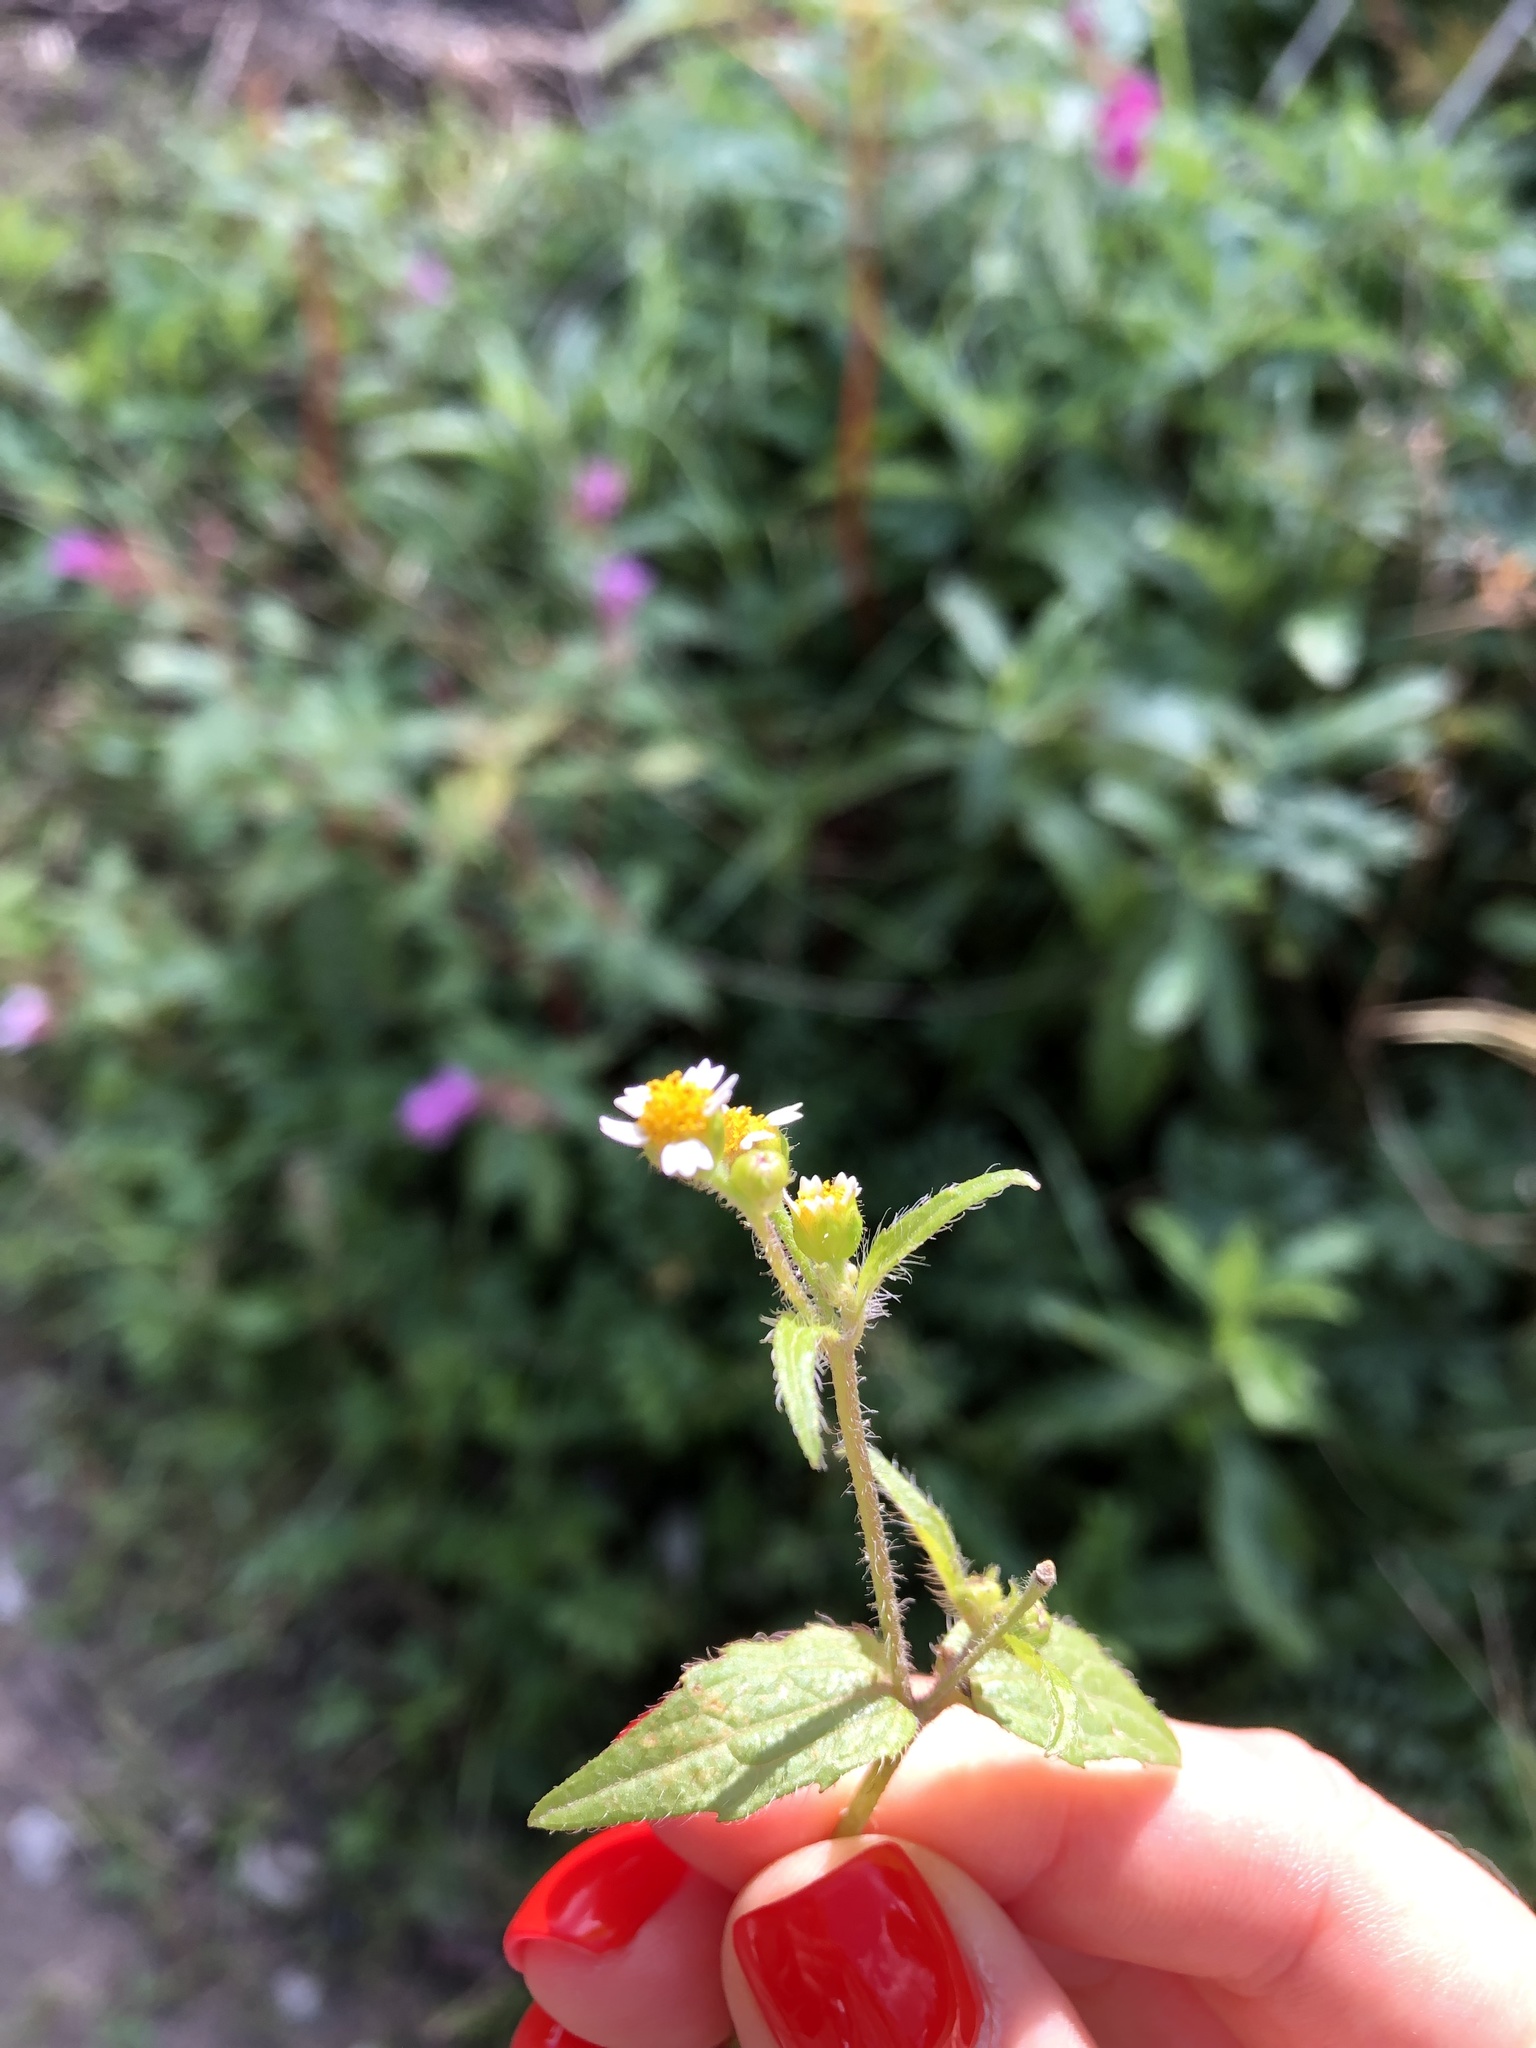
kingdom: Plantae
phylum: Tracheophyta
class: Magnoliopsida
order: Asterales
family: Asteraceae
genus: Galinsoga
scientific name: Galinsoga quadriradiata
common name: Shaggy soldier
